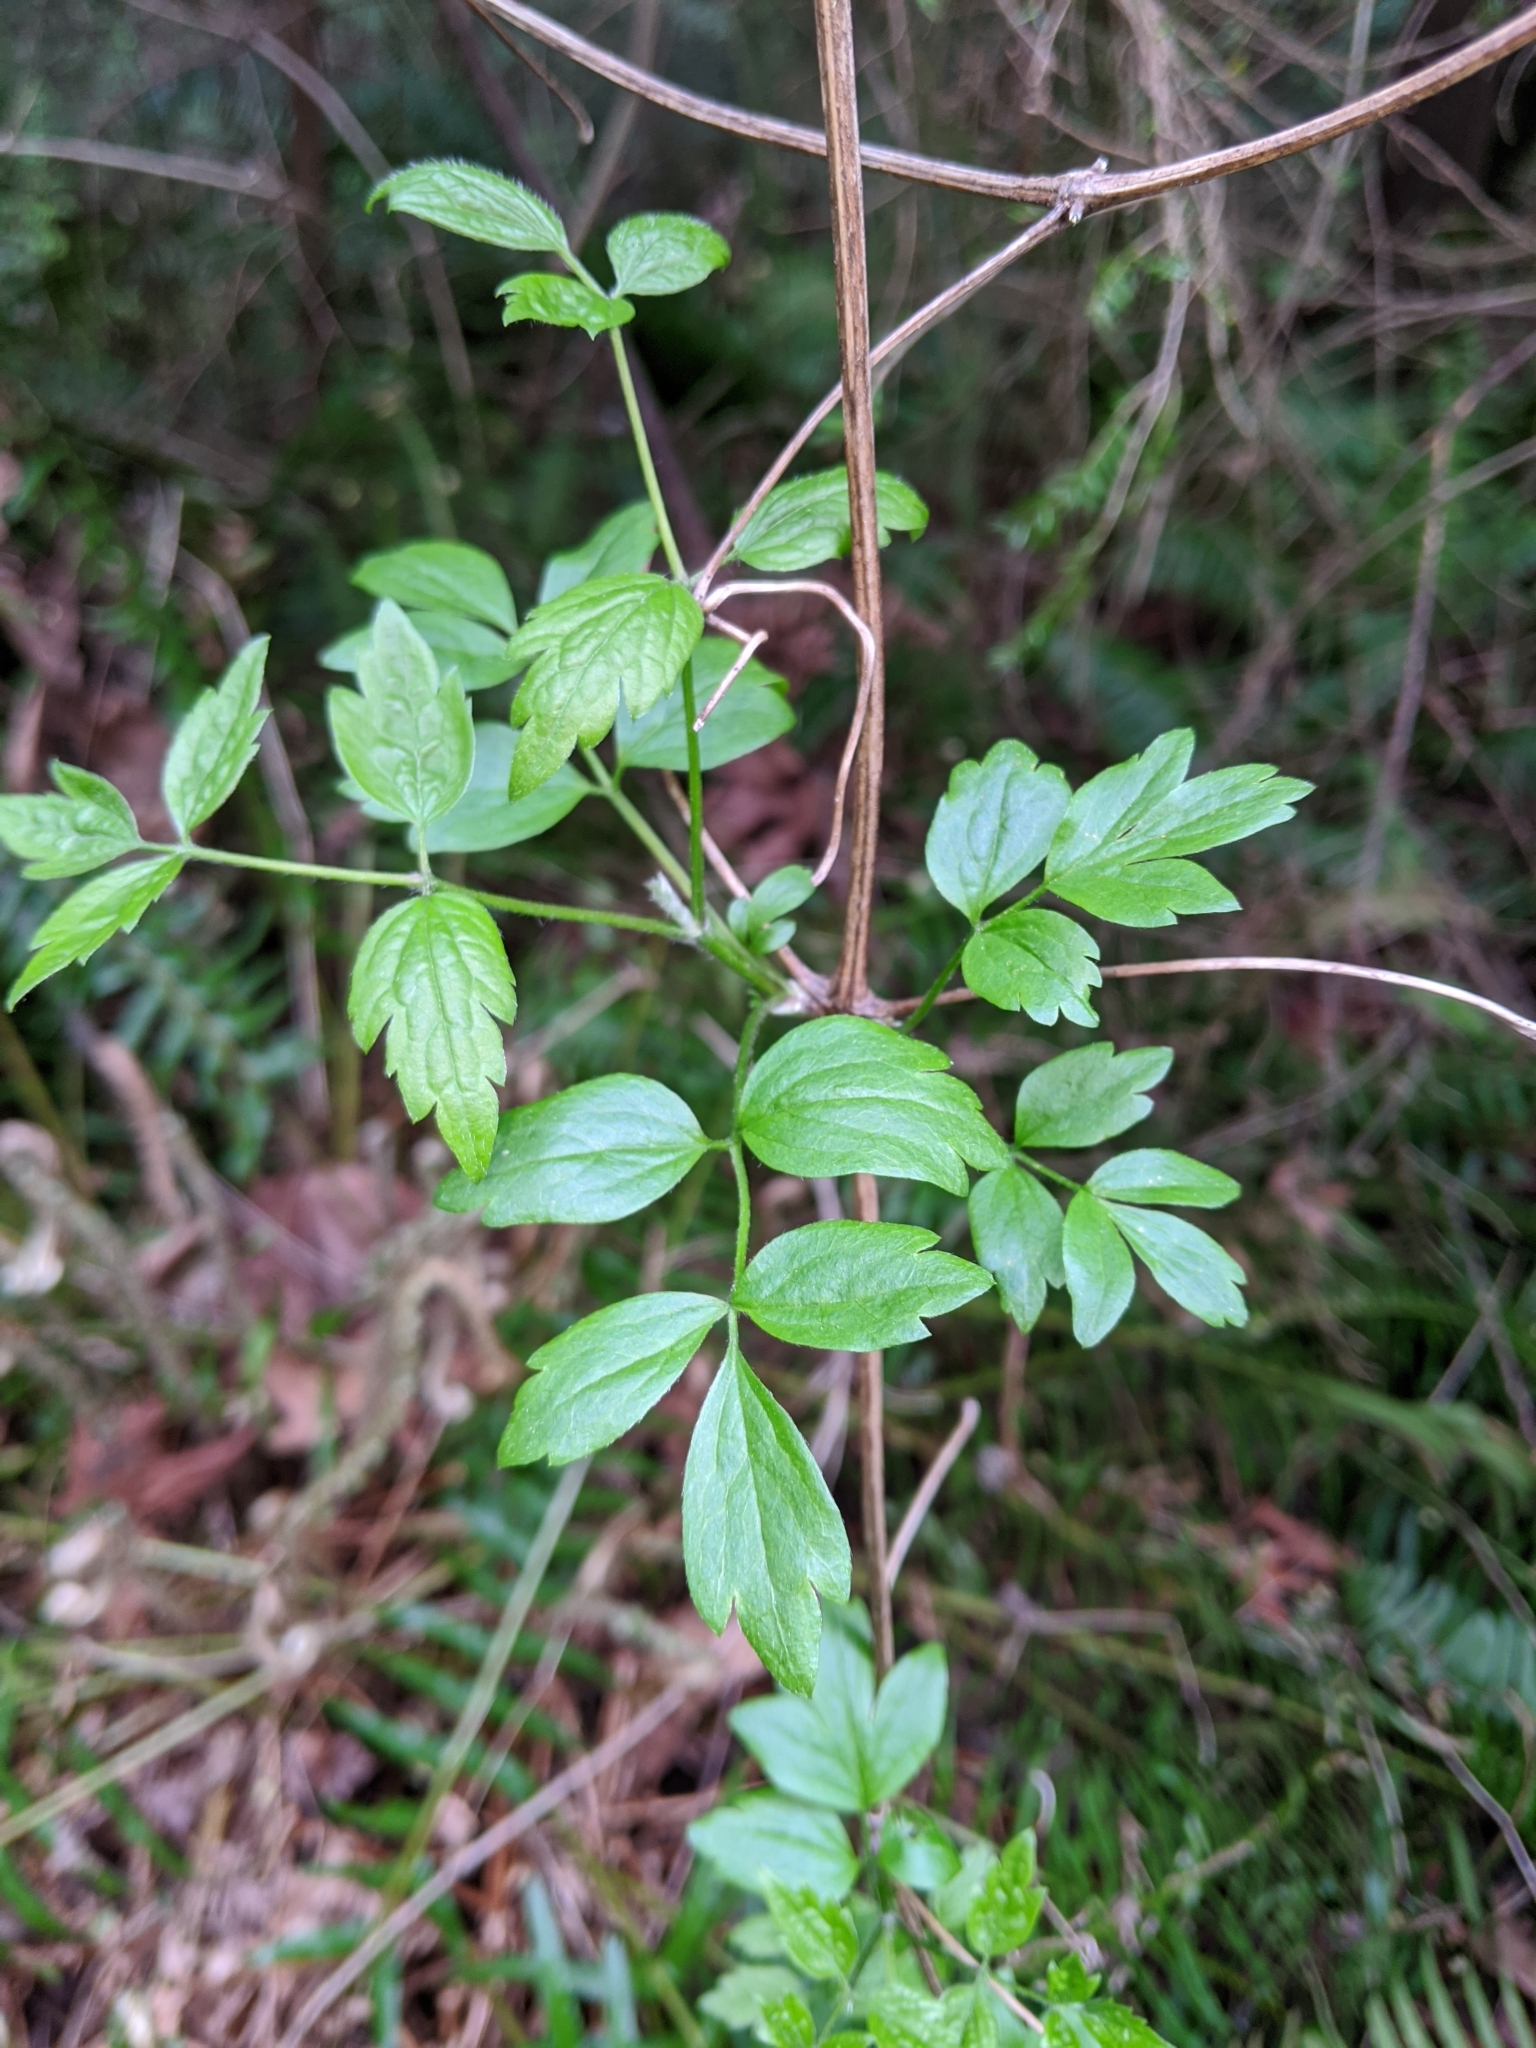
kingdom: Plantae
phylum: Tracheophyta
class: Magnoliopsida
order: Ranunculales
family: Ranunculaceae
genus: Clematis
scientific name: Clematis vitalba
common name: Evergreen clematis
